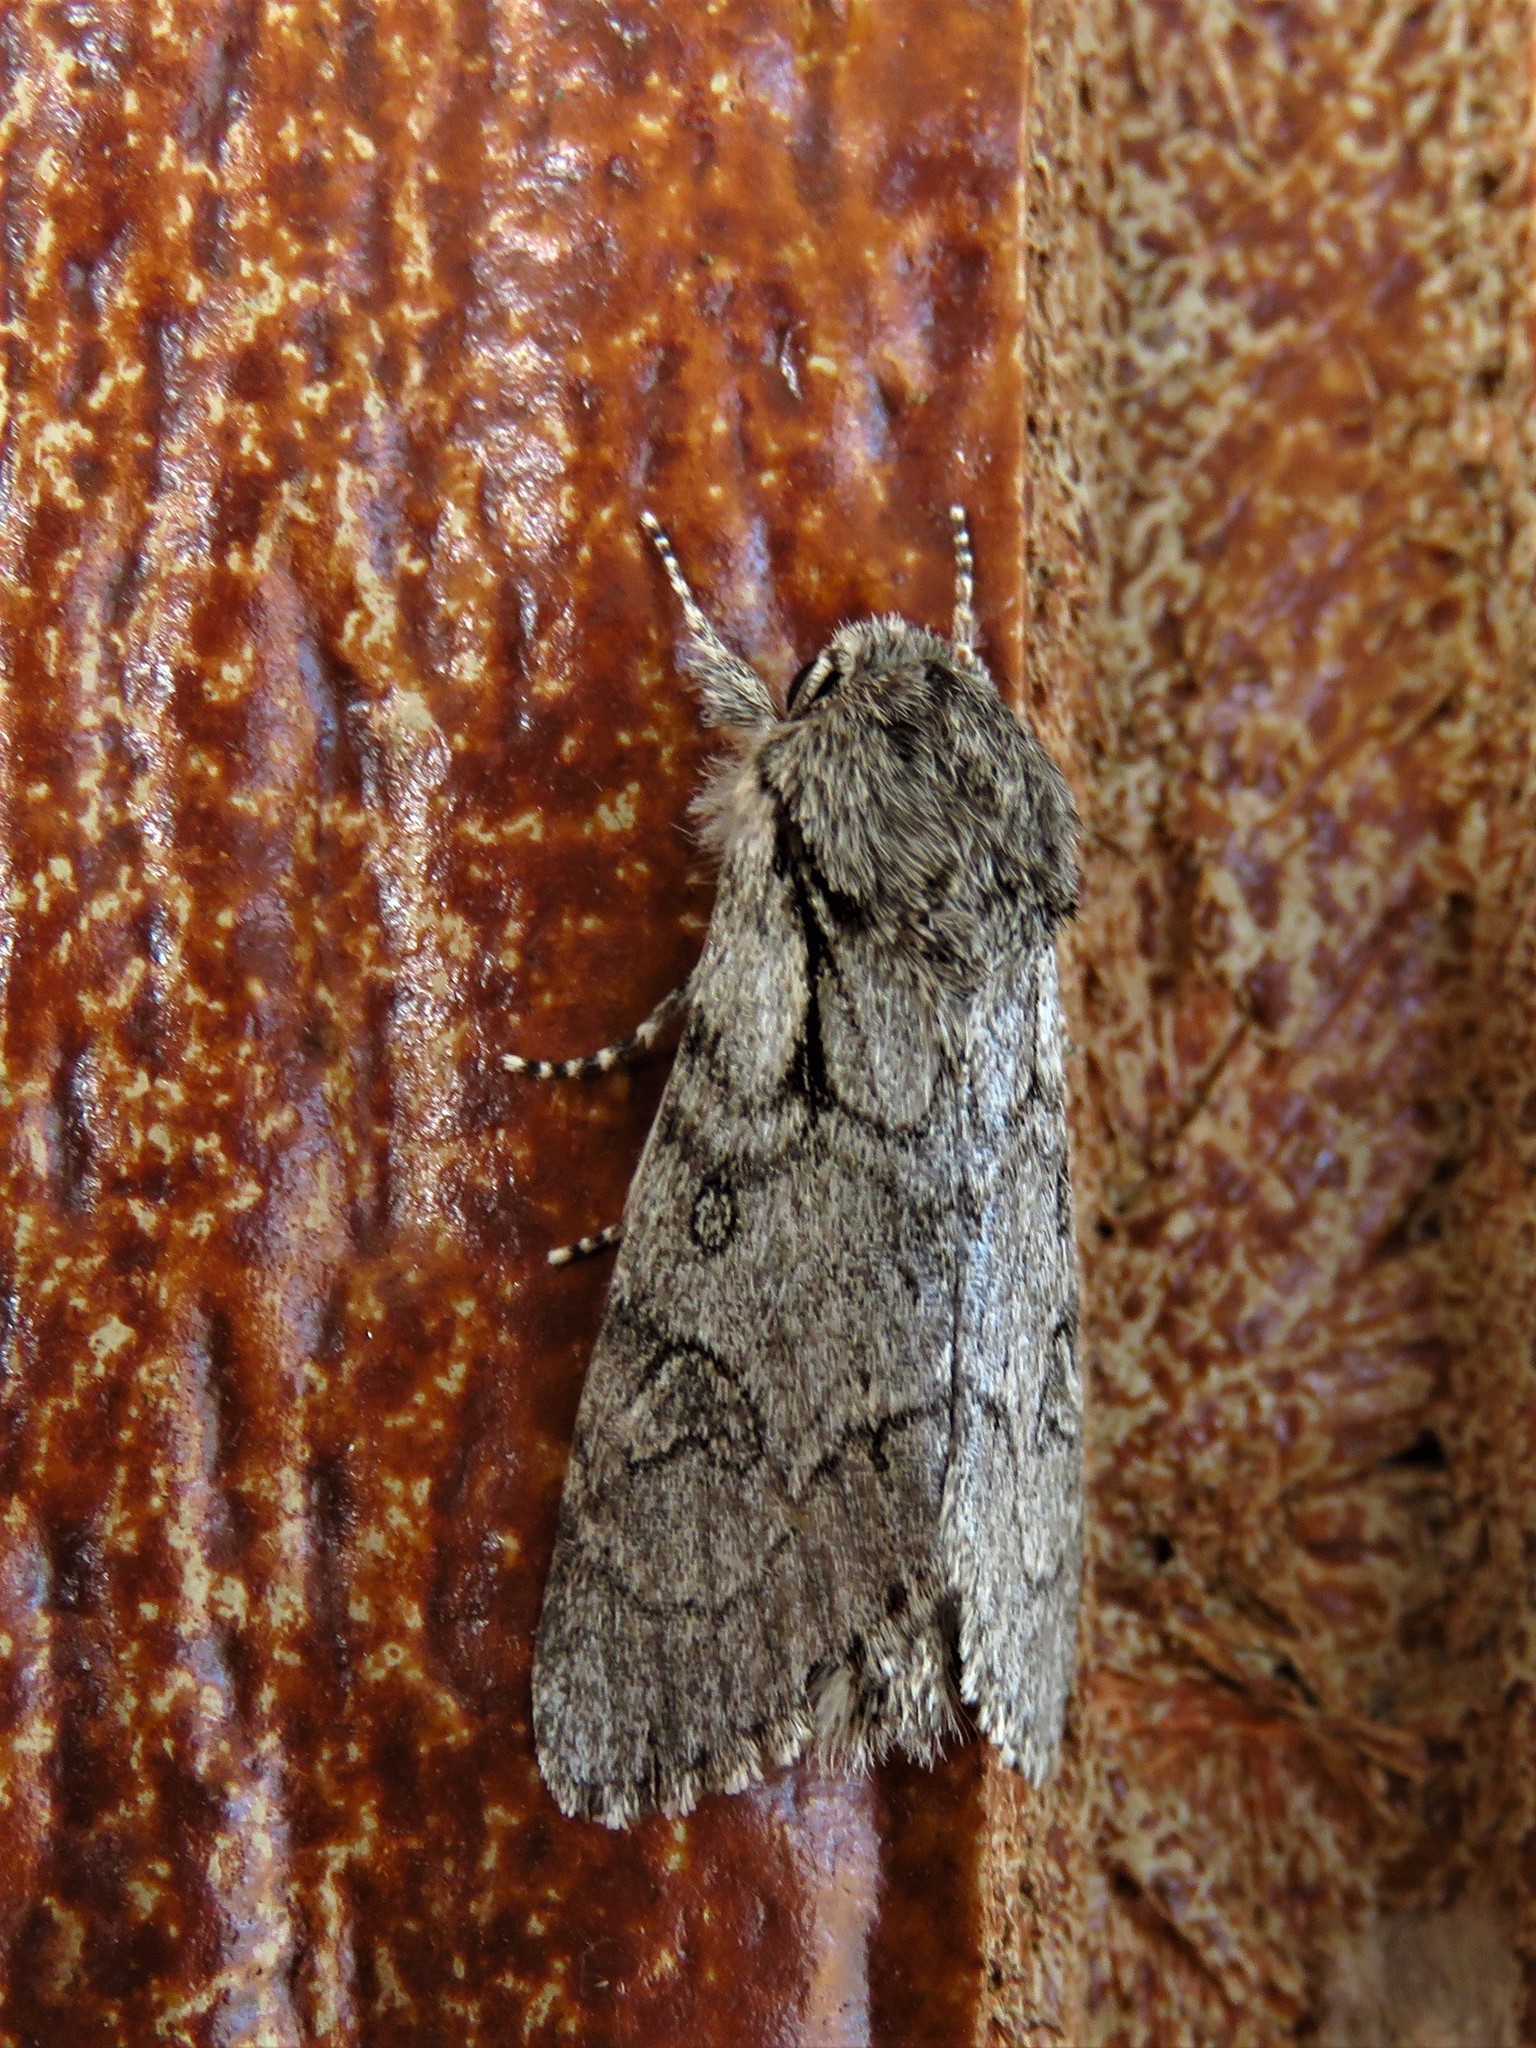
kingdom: Animalia
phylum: Arthropoda
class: Insecta
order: Lepidoptera
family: Noctuidae
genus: Acronicta
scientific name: Acronicta tota
